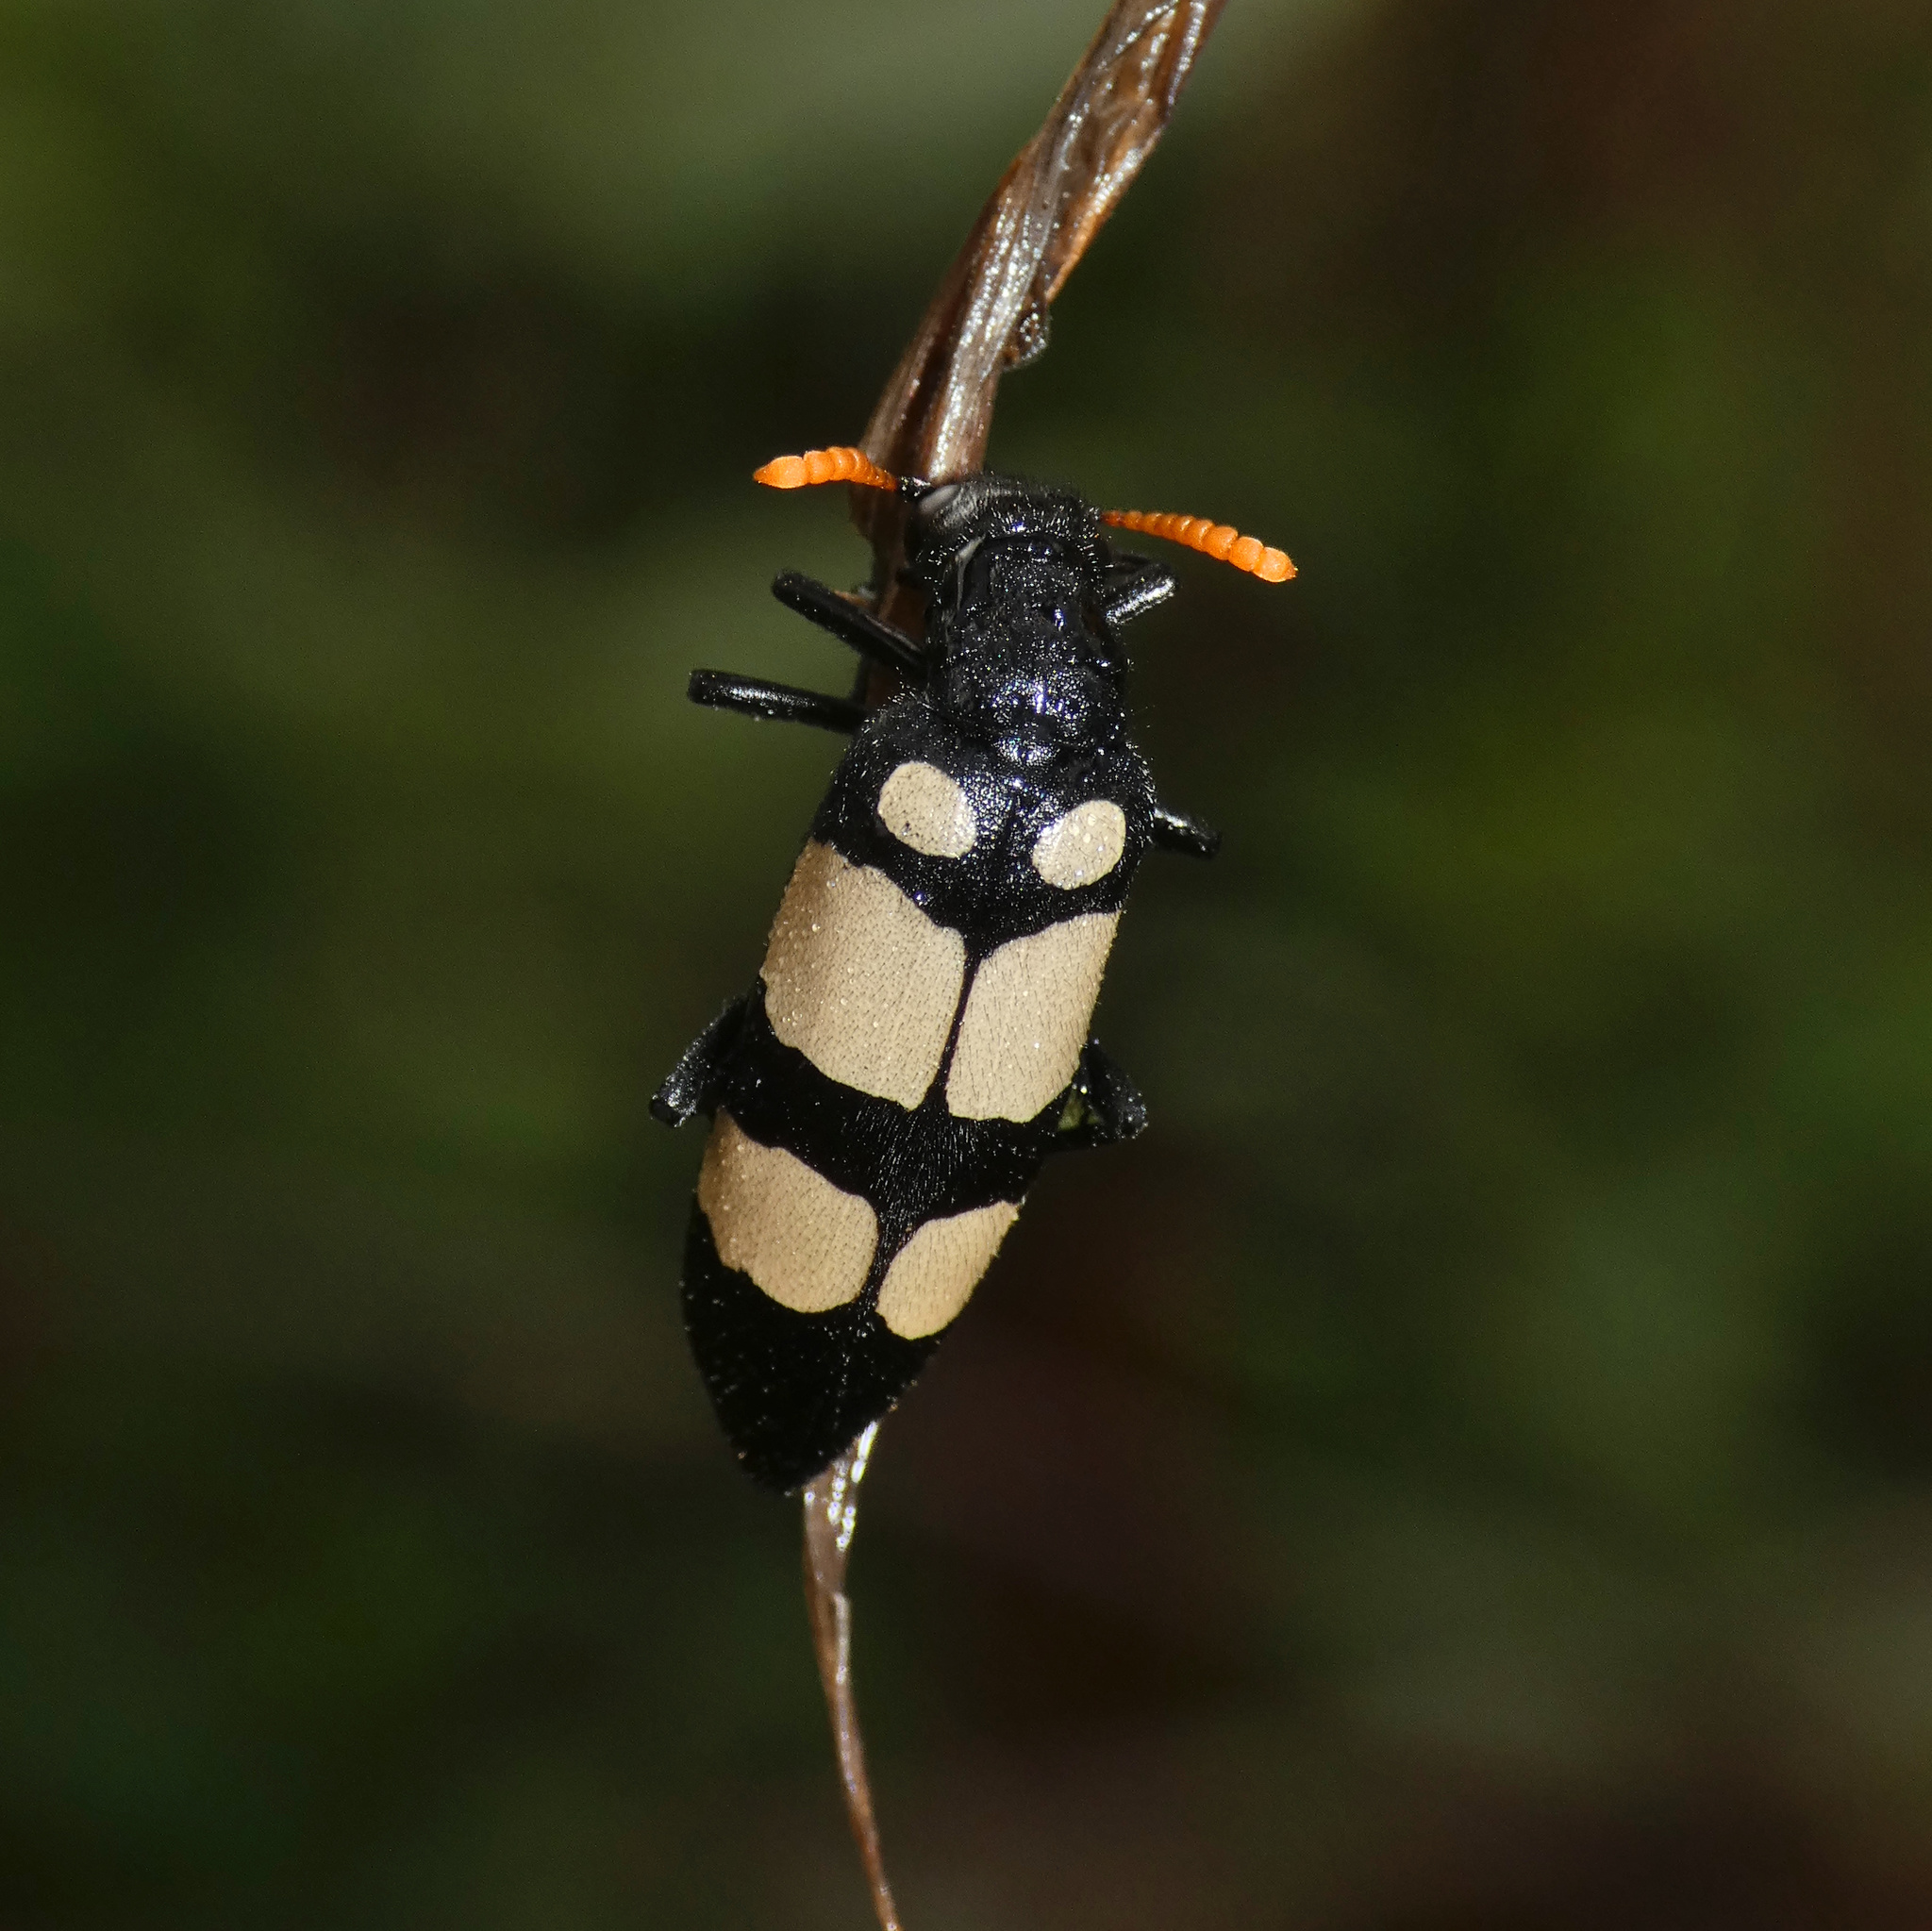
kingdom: Animalia
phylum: Arthropoda
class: Insecta
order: Coleoptera
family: Meloidae
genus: Hycleus
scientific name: Hycleus
